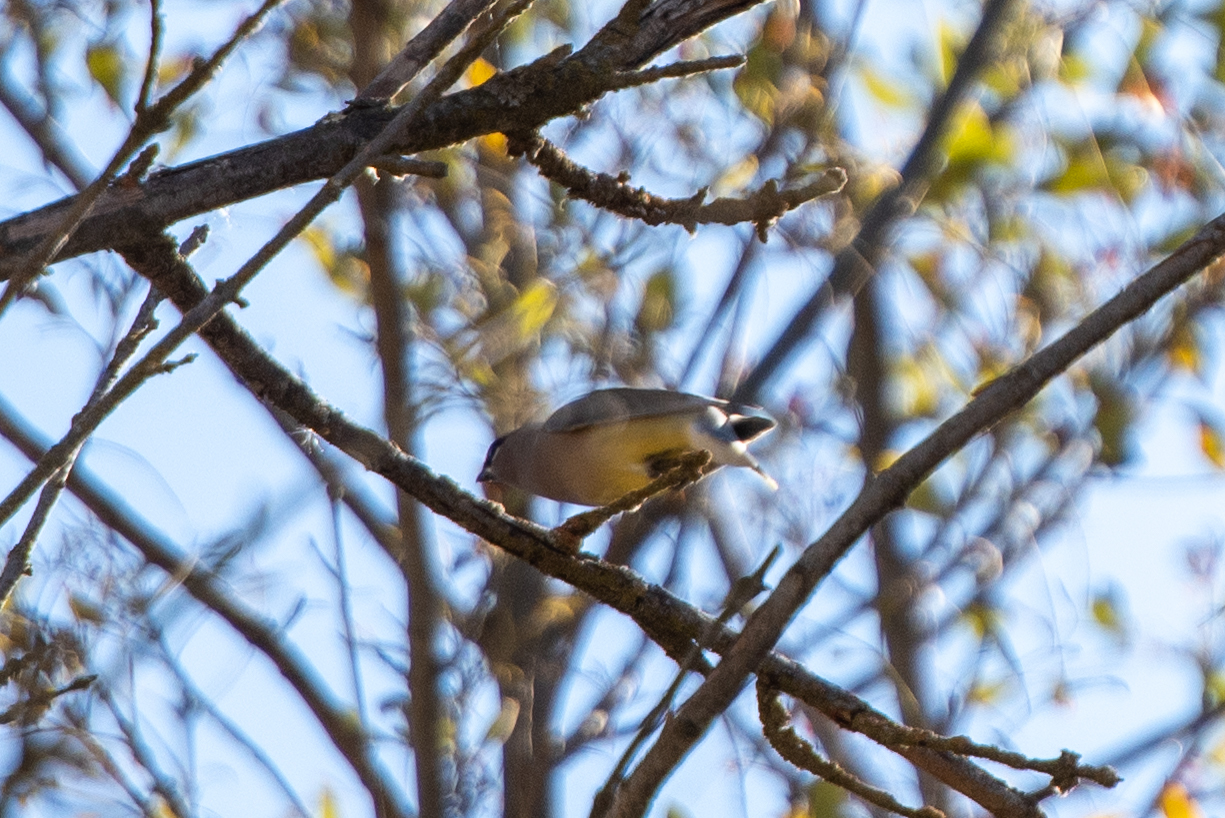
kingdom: Animalia
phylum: Chordata
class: Aves
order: Passeriformes
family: Bombycillidae
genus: Bombycilla
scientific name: Bombycilla cedrorum
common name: Cedar waxwing
